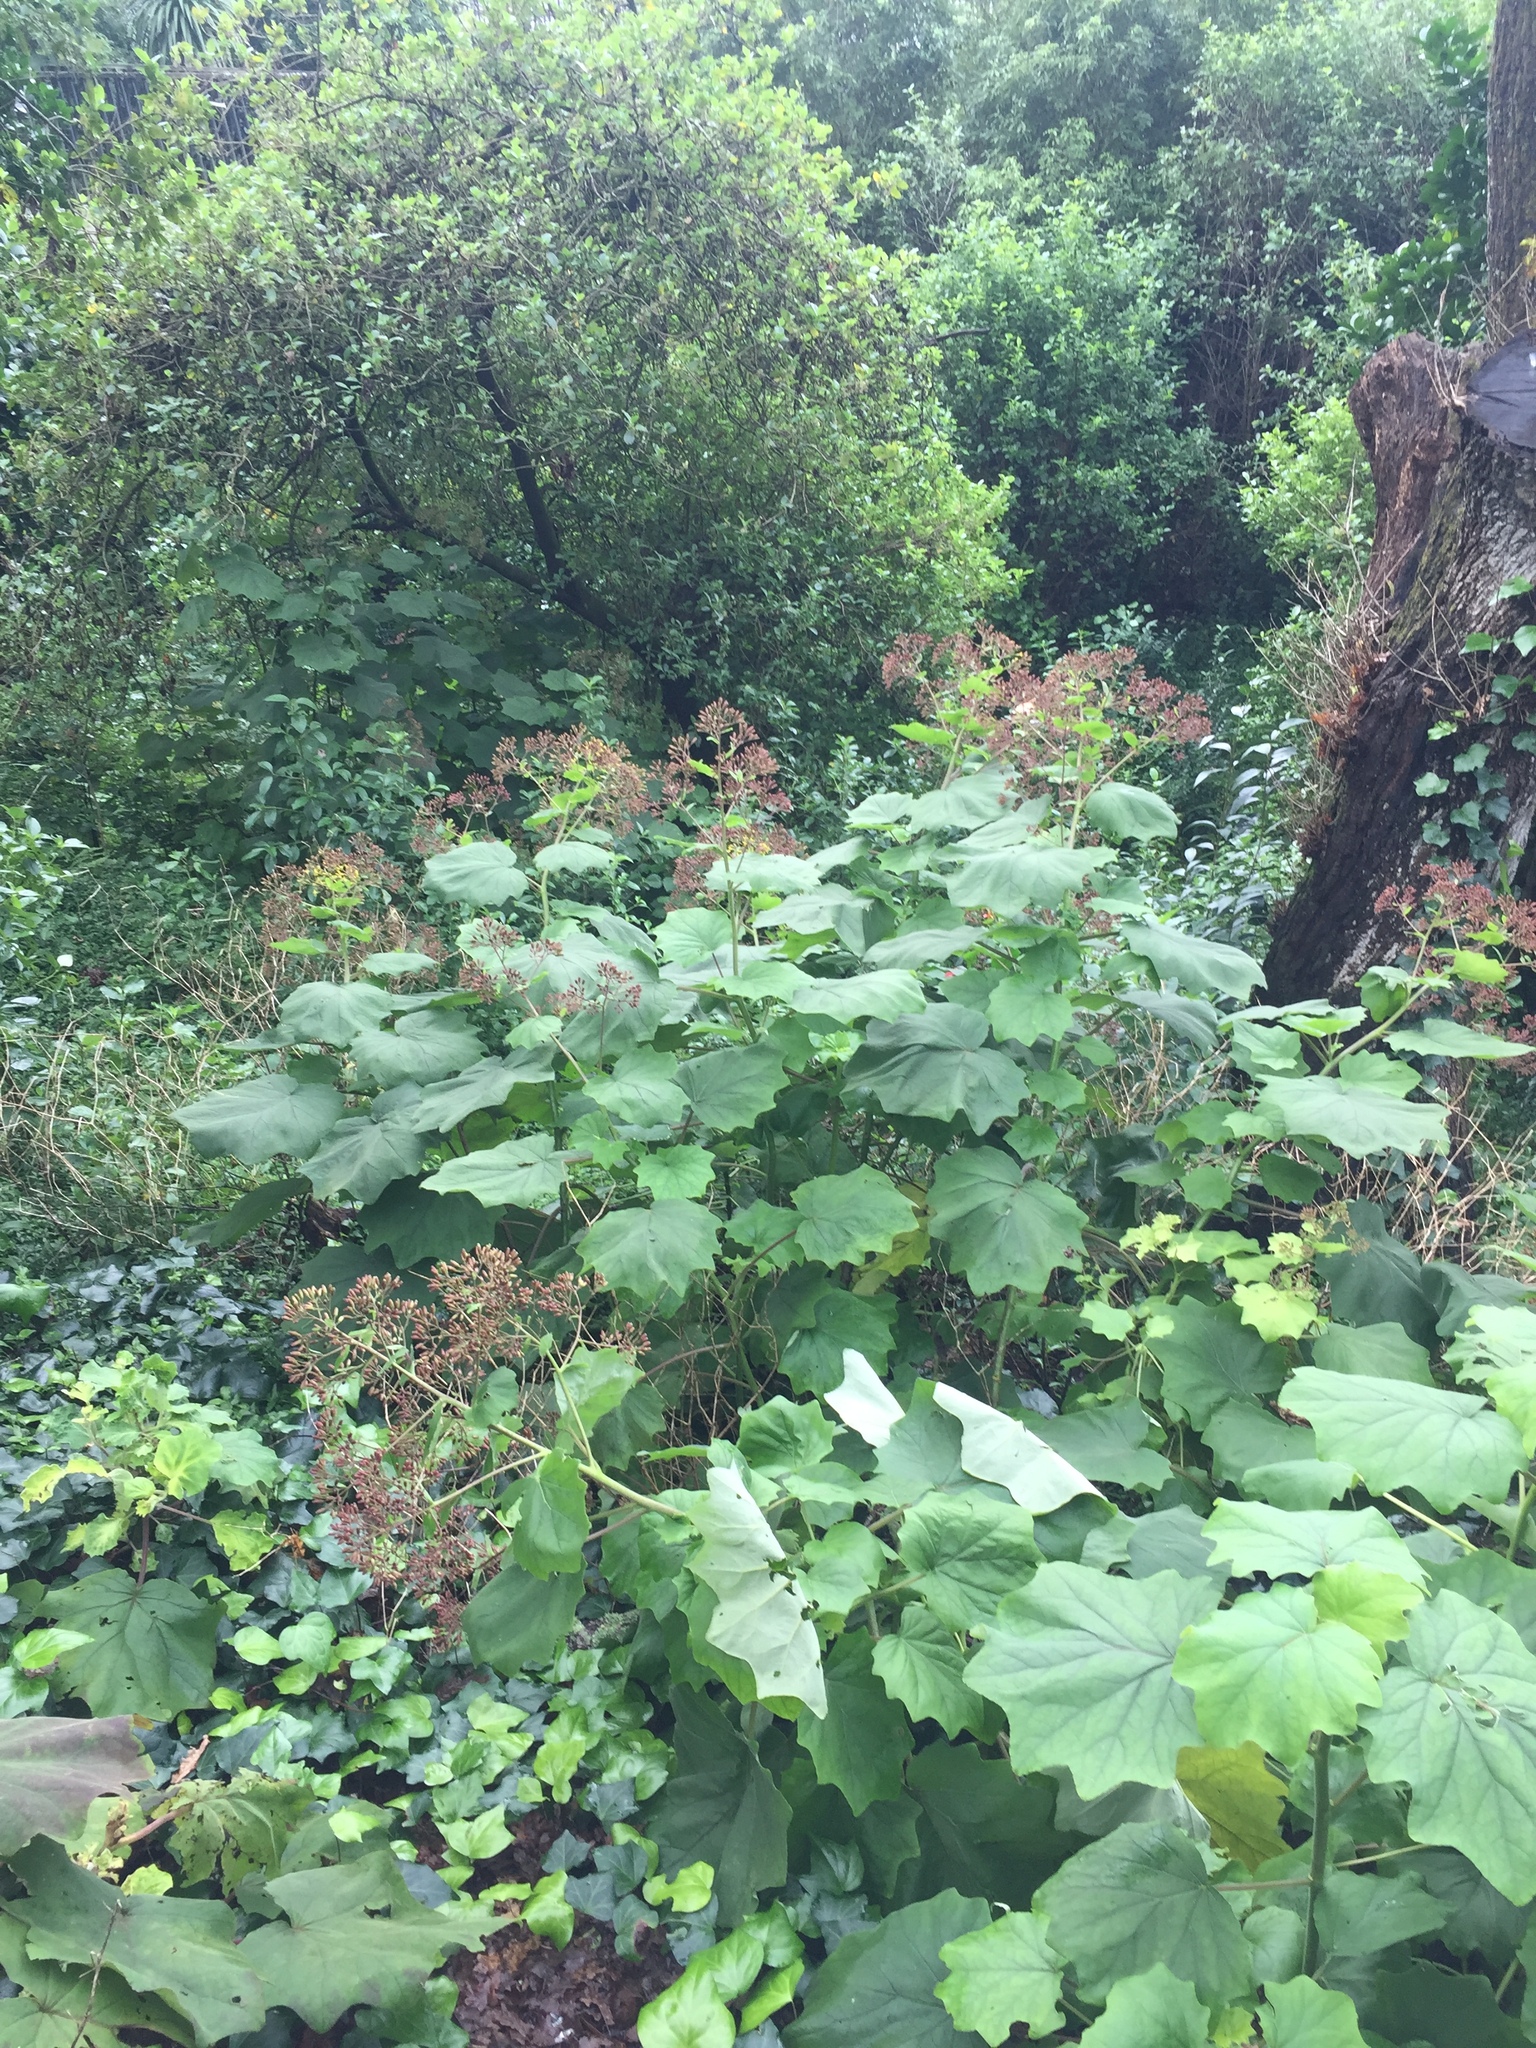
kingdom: Plantae
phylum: Tracheophyta
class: Magnoliopsida
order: Asterales
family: Asteraceae
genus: Roldana
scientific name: Roldana petasitis
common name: California-geranium
